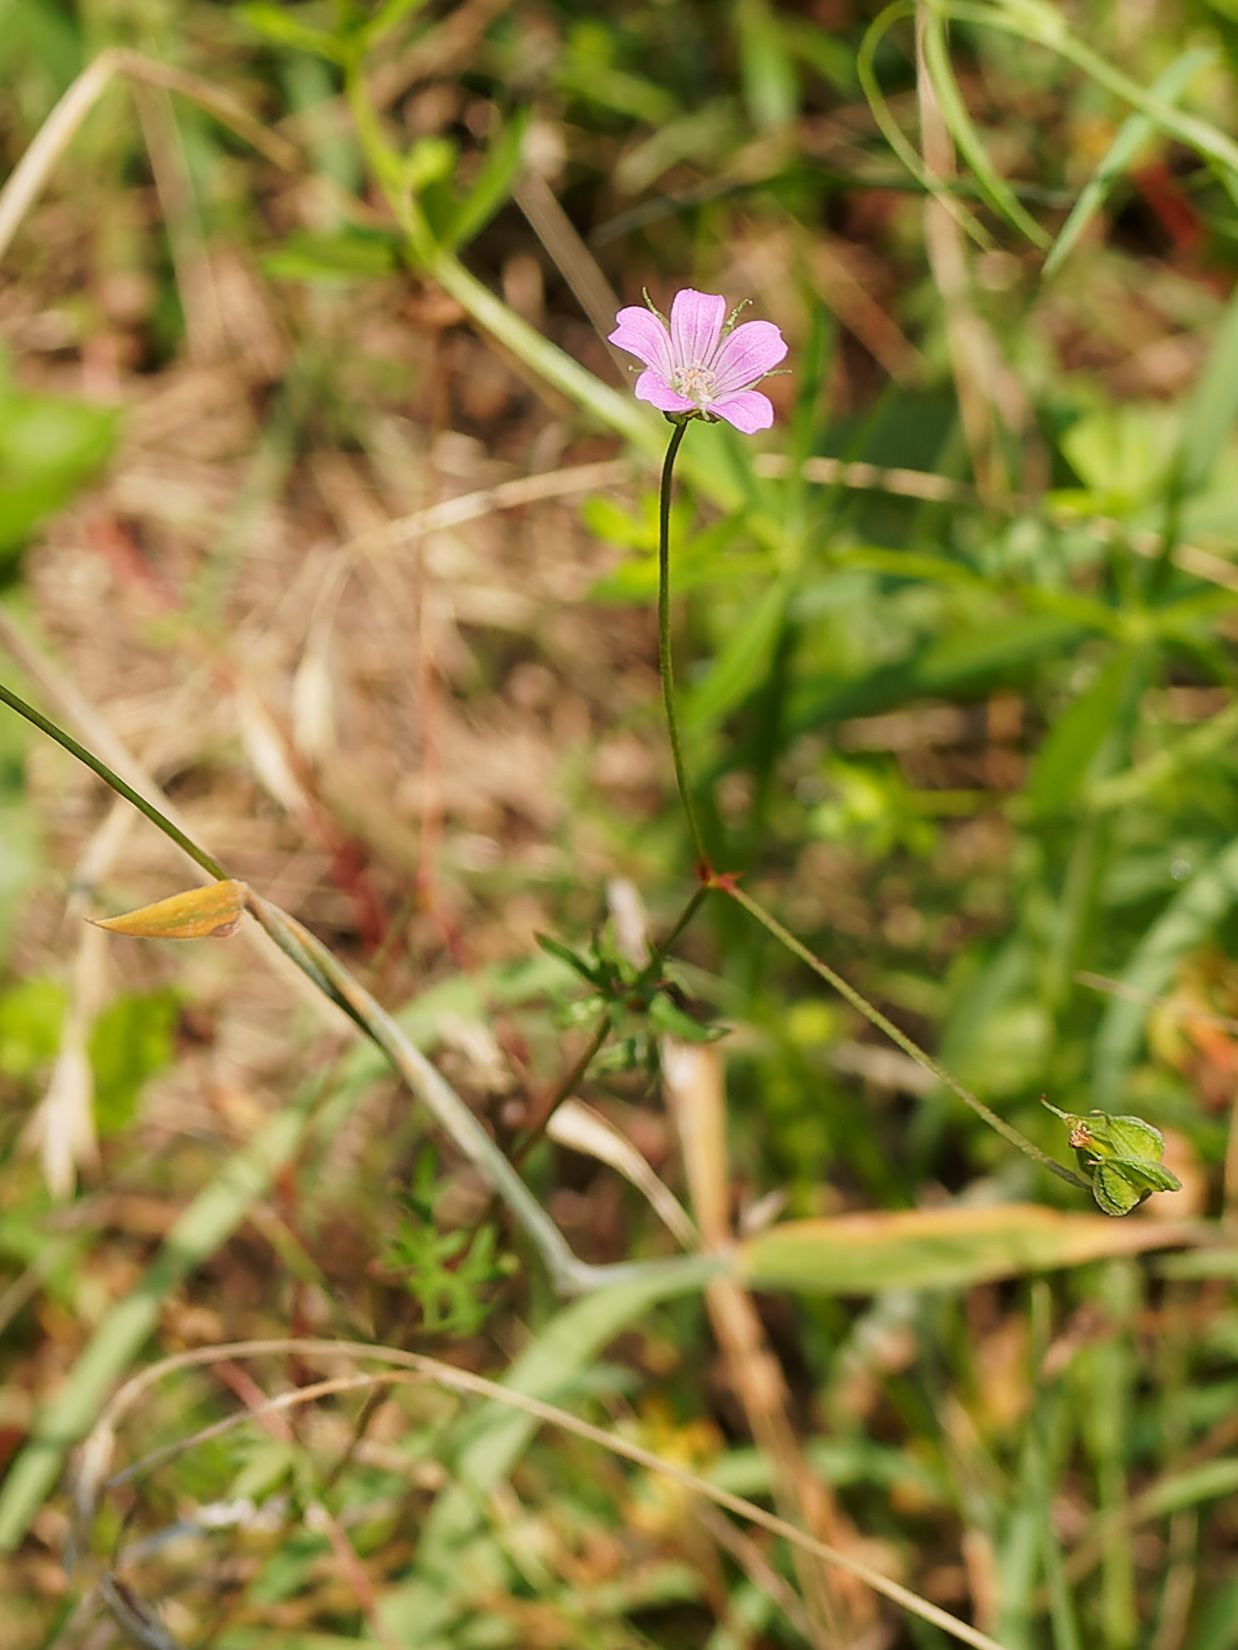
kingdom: Plantae
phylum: Tracheophyta
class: Magnoliopsida
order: Geraniales
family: Geraniaceae
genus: Geranium
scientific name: Geranium columbinum
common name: Long-stalked crane's-bill
